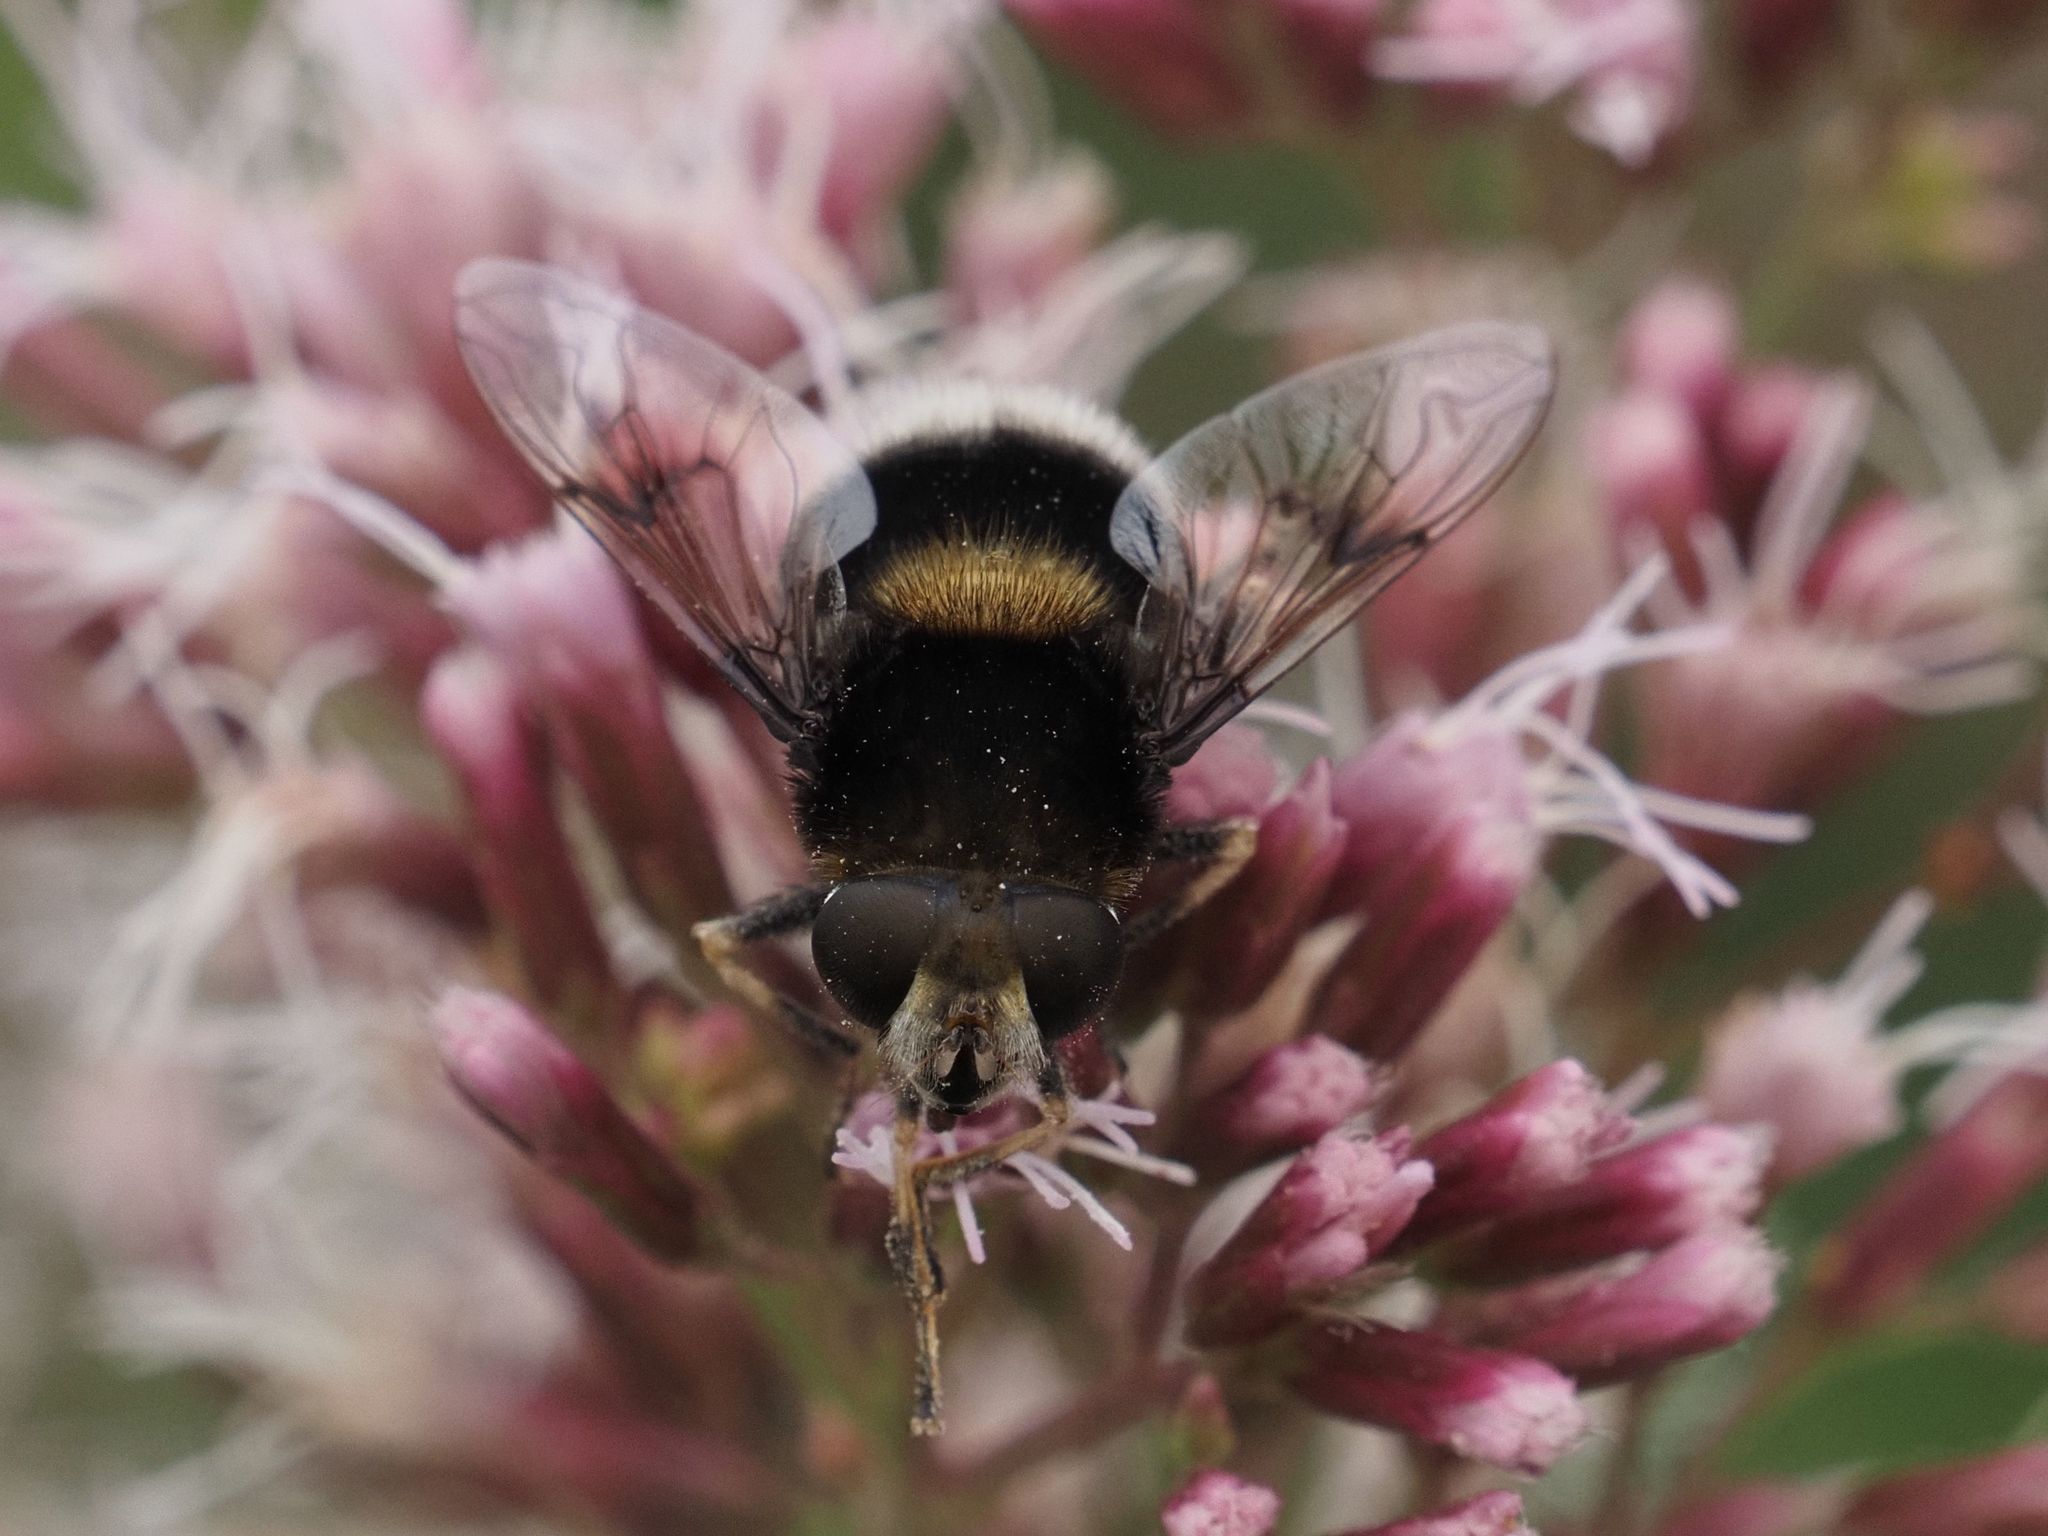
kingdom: Animalia
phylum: Arthropoda
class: Insecta
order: Diptera
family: Syrphidae
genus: Eristalis
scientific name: Eristalis intricaria
